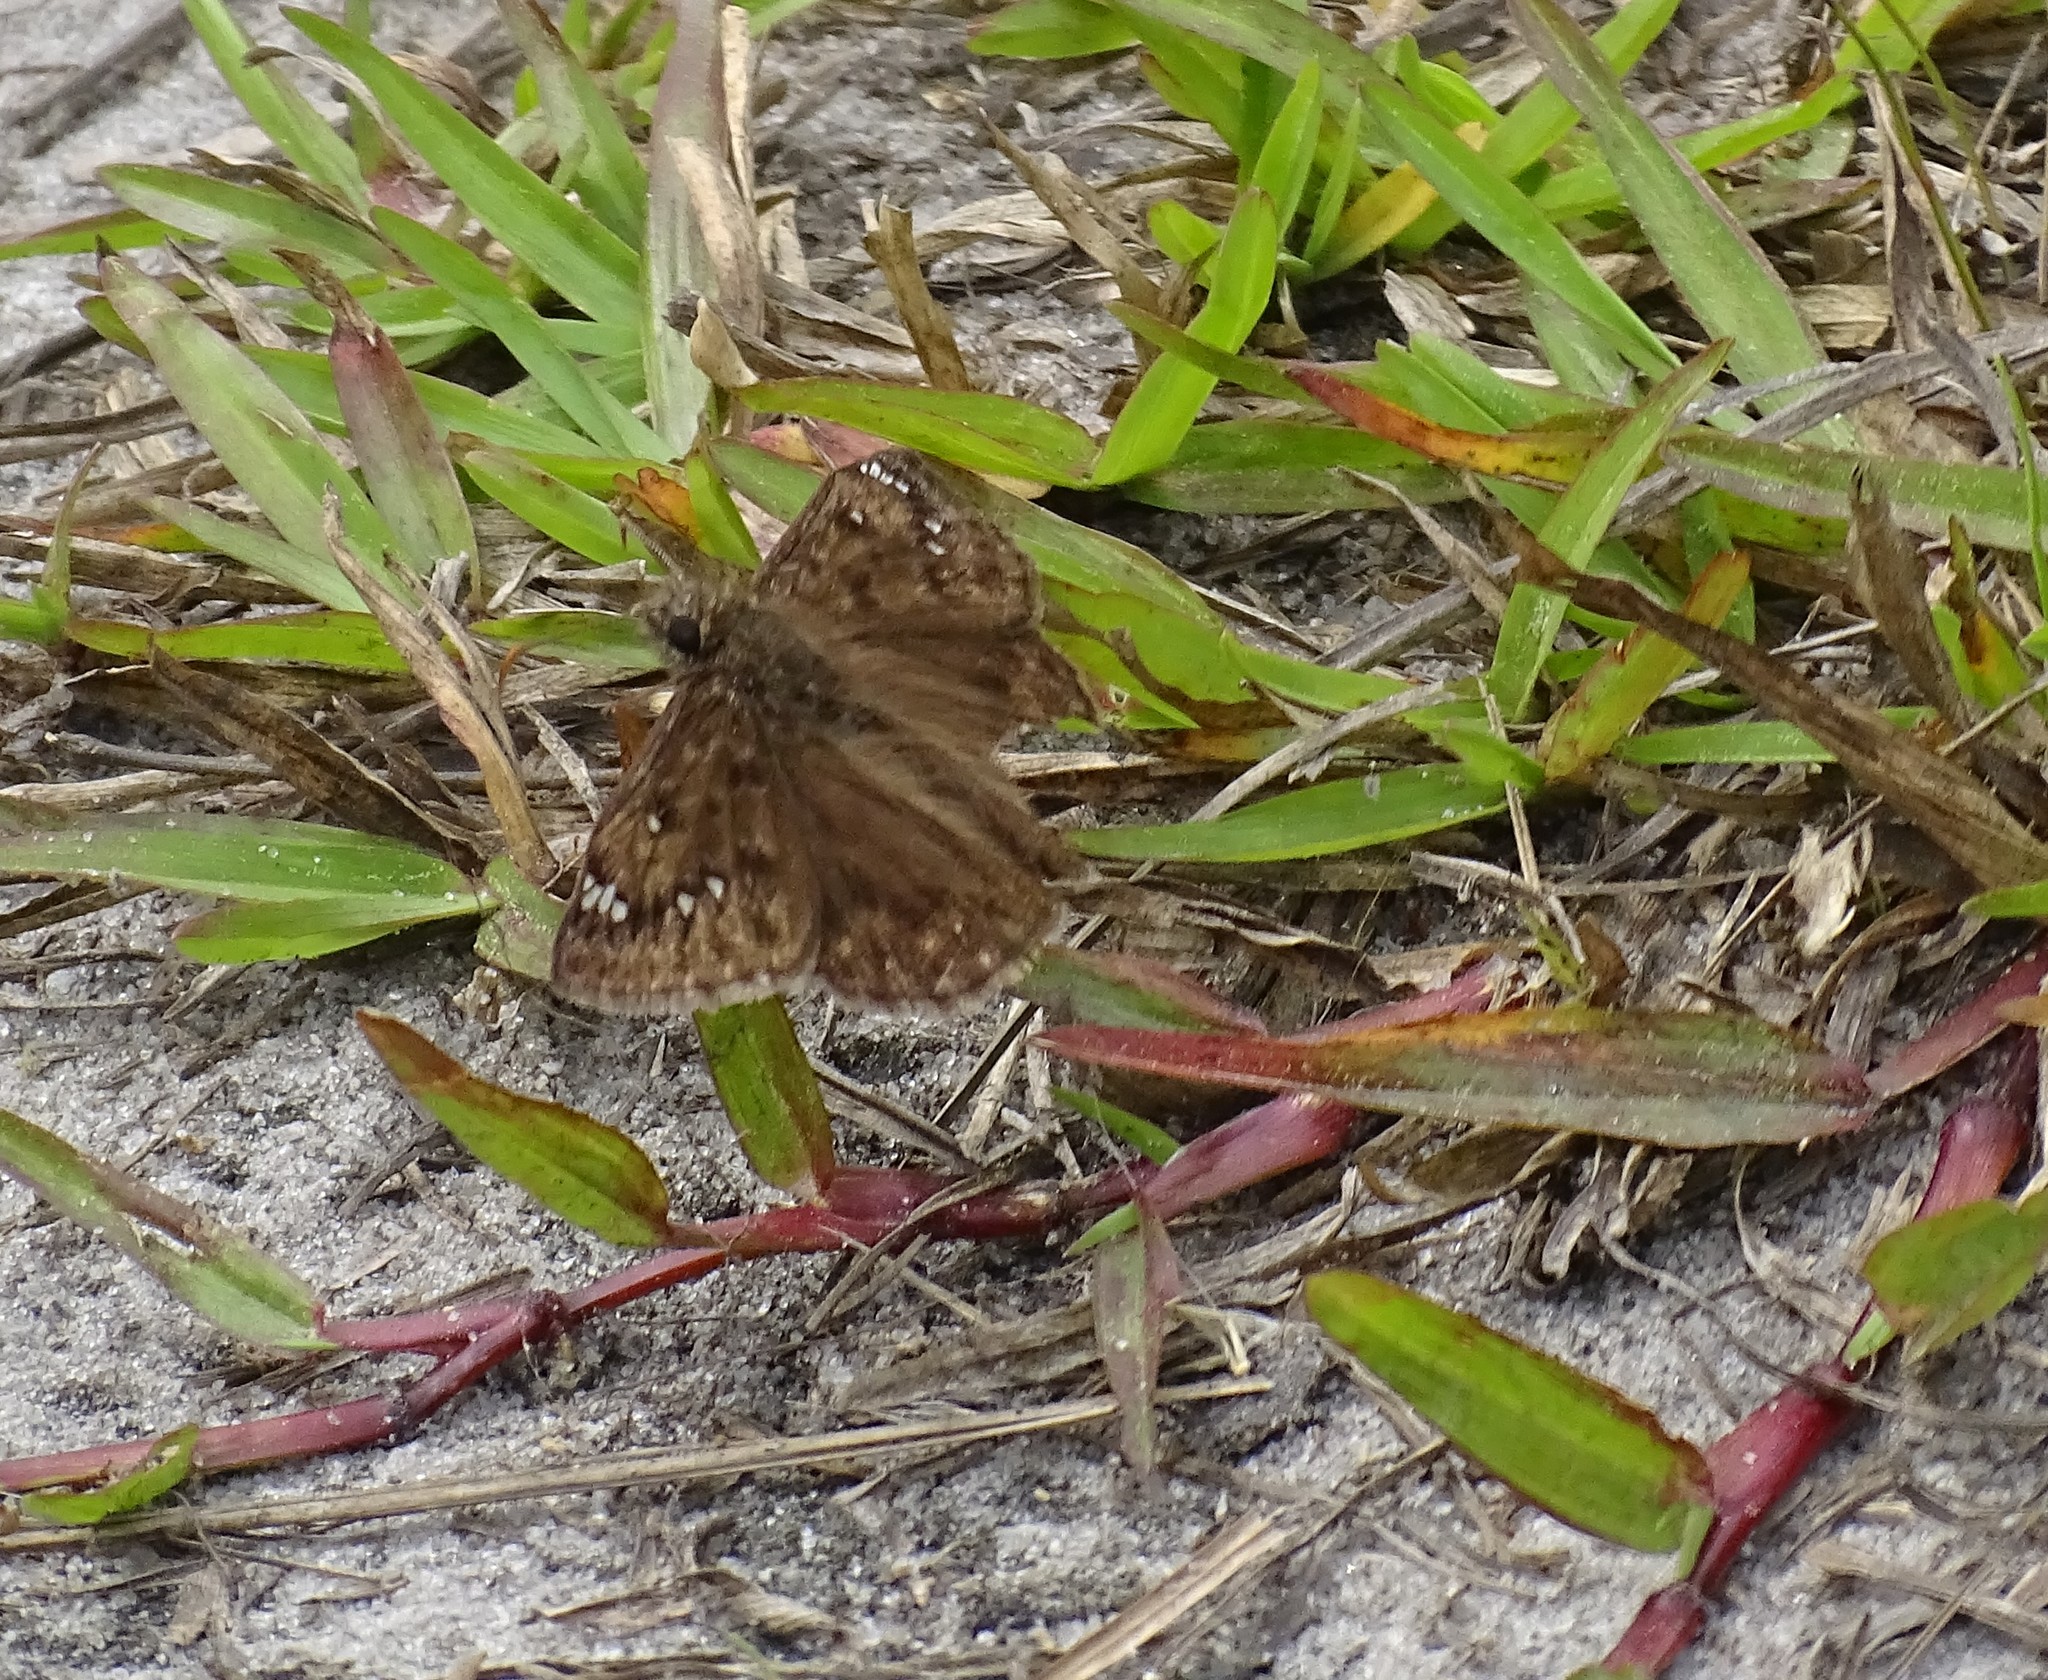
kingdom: Animalia
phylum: Arthropoda
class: Insecta
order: Lepidoptera
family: Hesperiidae
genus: Erynnis
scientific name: Erynnis horatius
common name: Horace's duskywing
